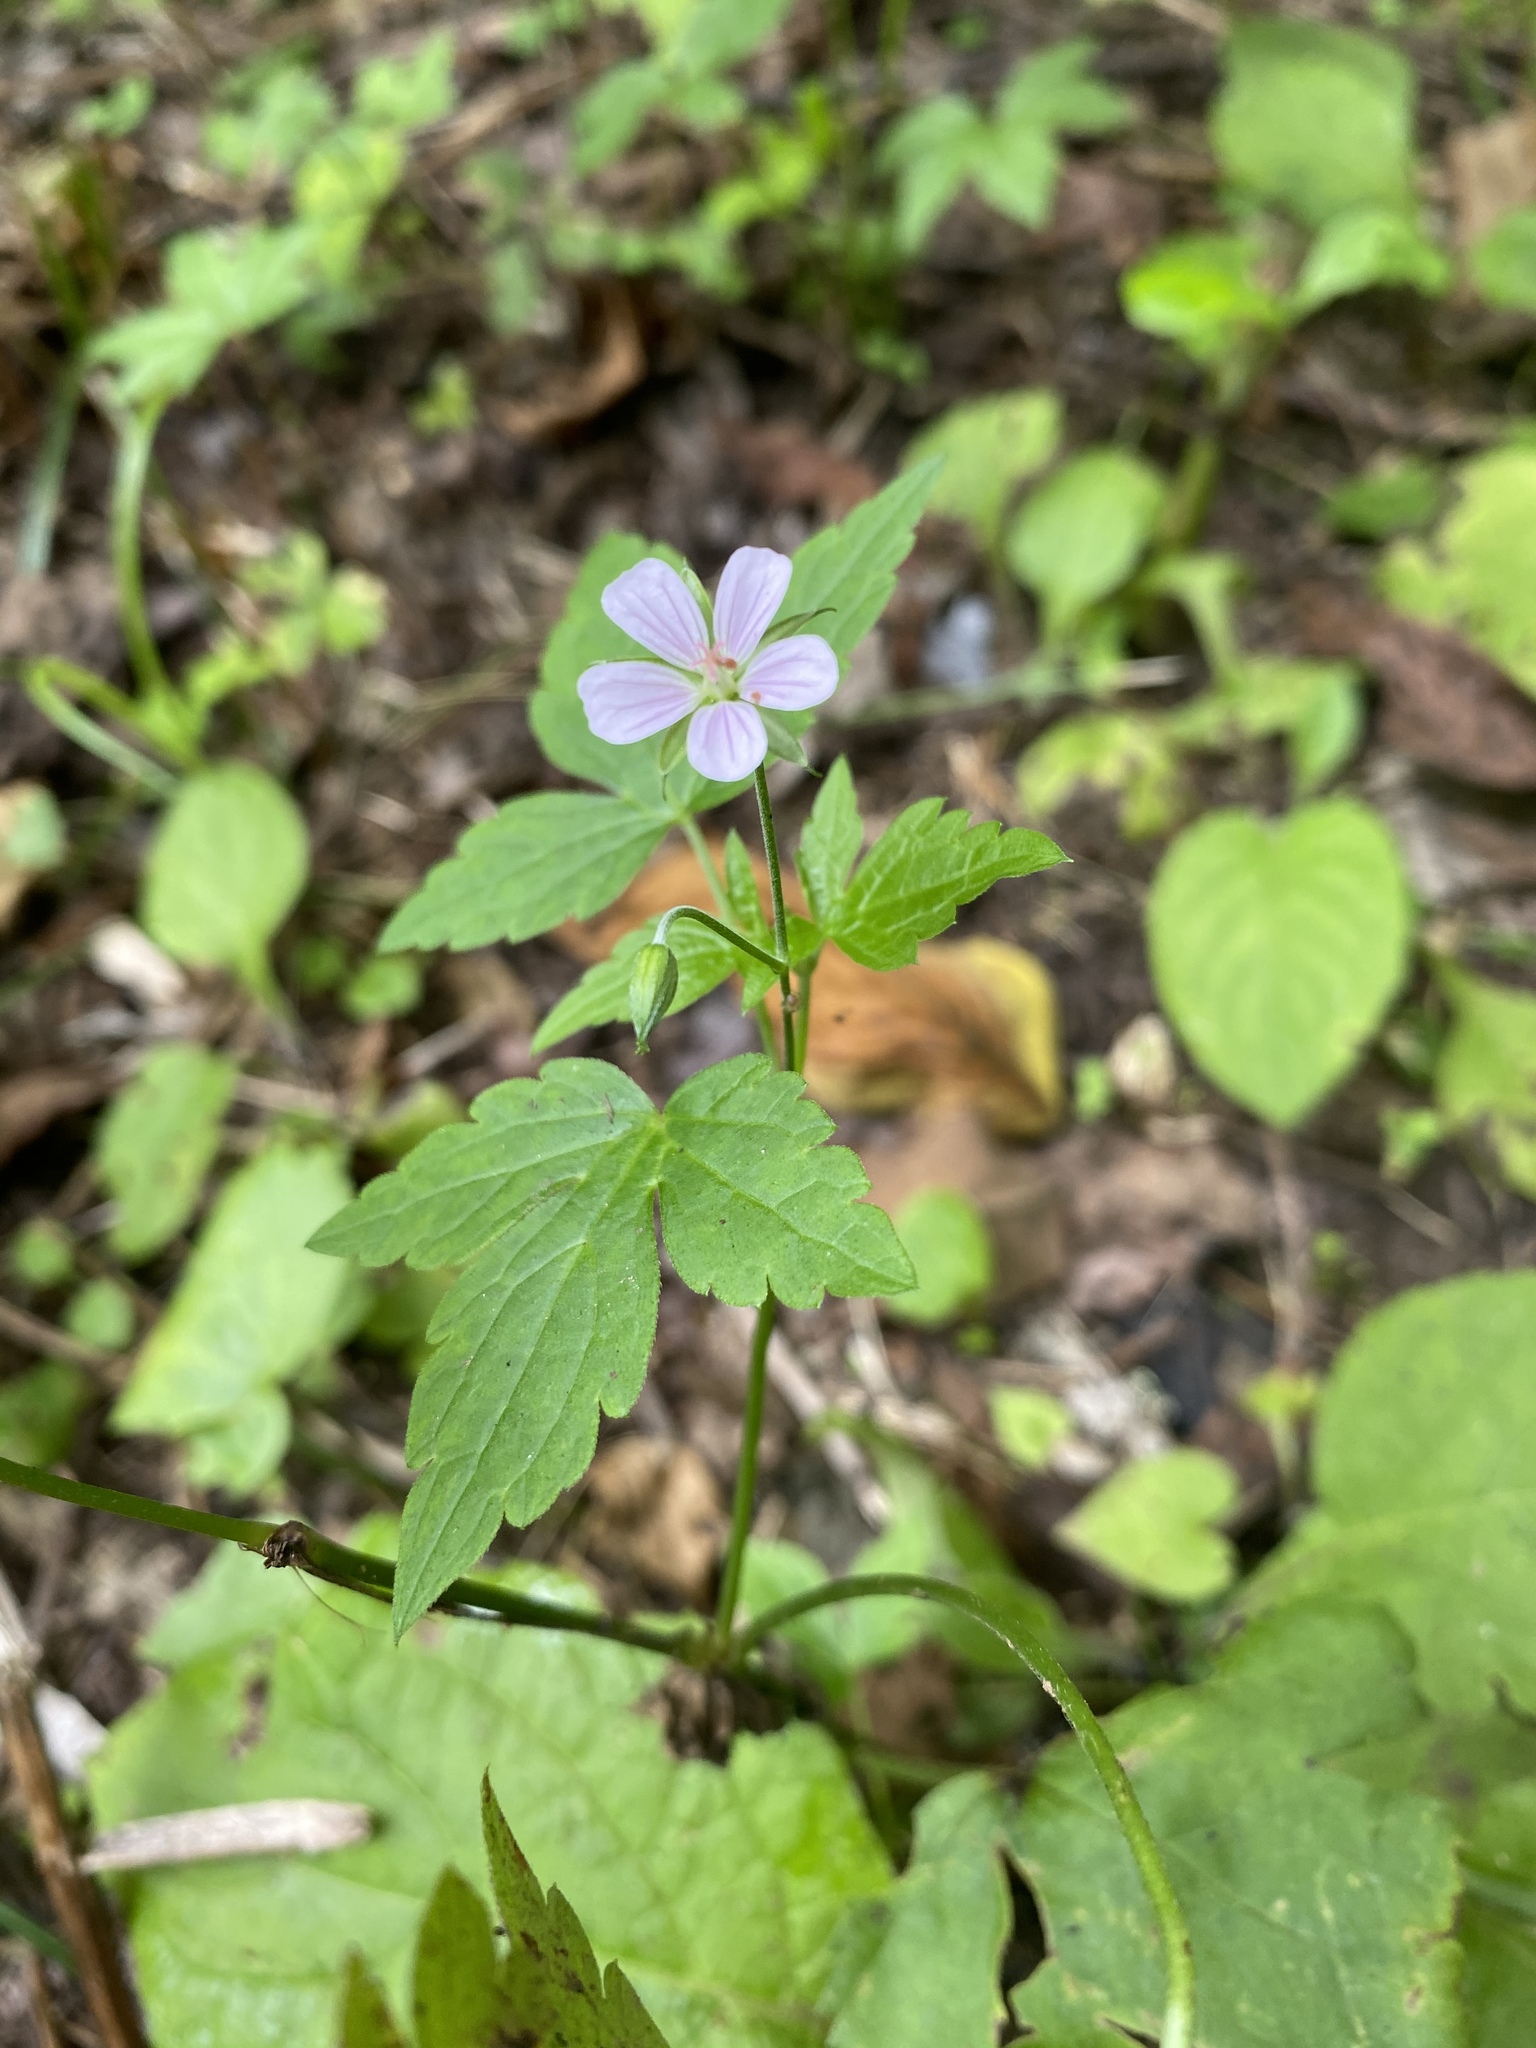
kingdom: Plantae
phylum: Tracheophyta
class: Magnoliopsida
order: Geraniales
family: Geraniaceae
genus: Geranium
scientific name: Geranium wilfordii
